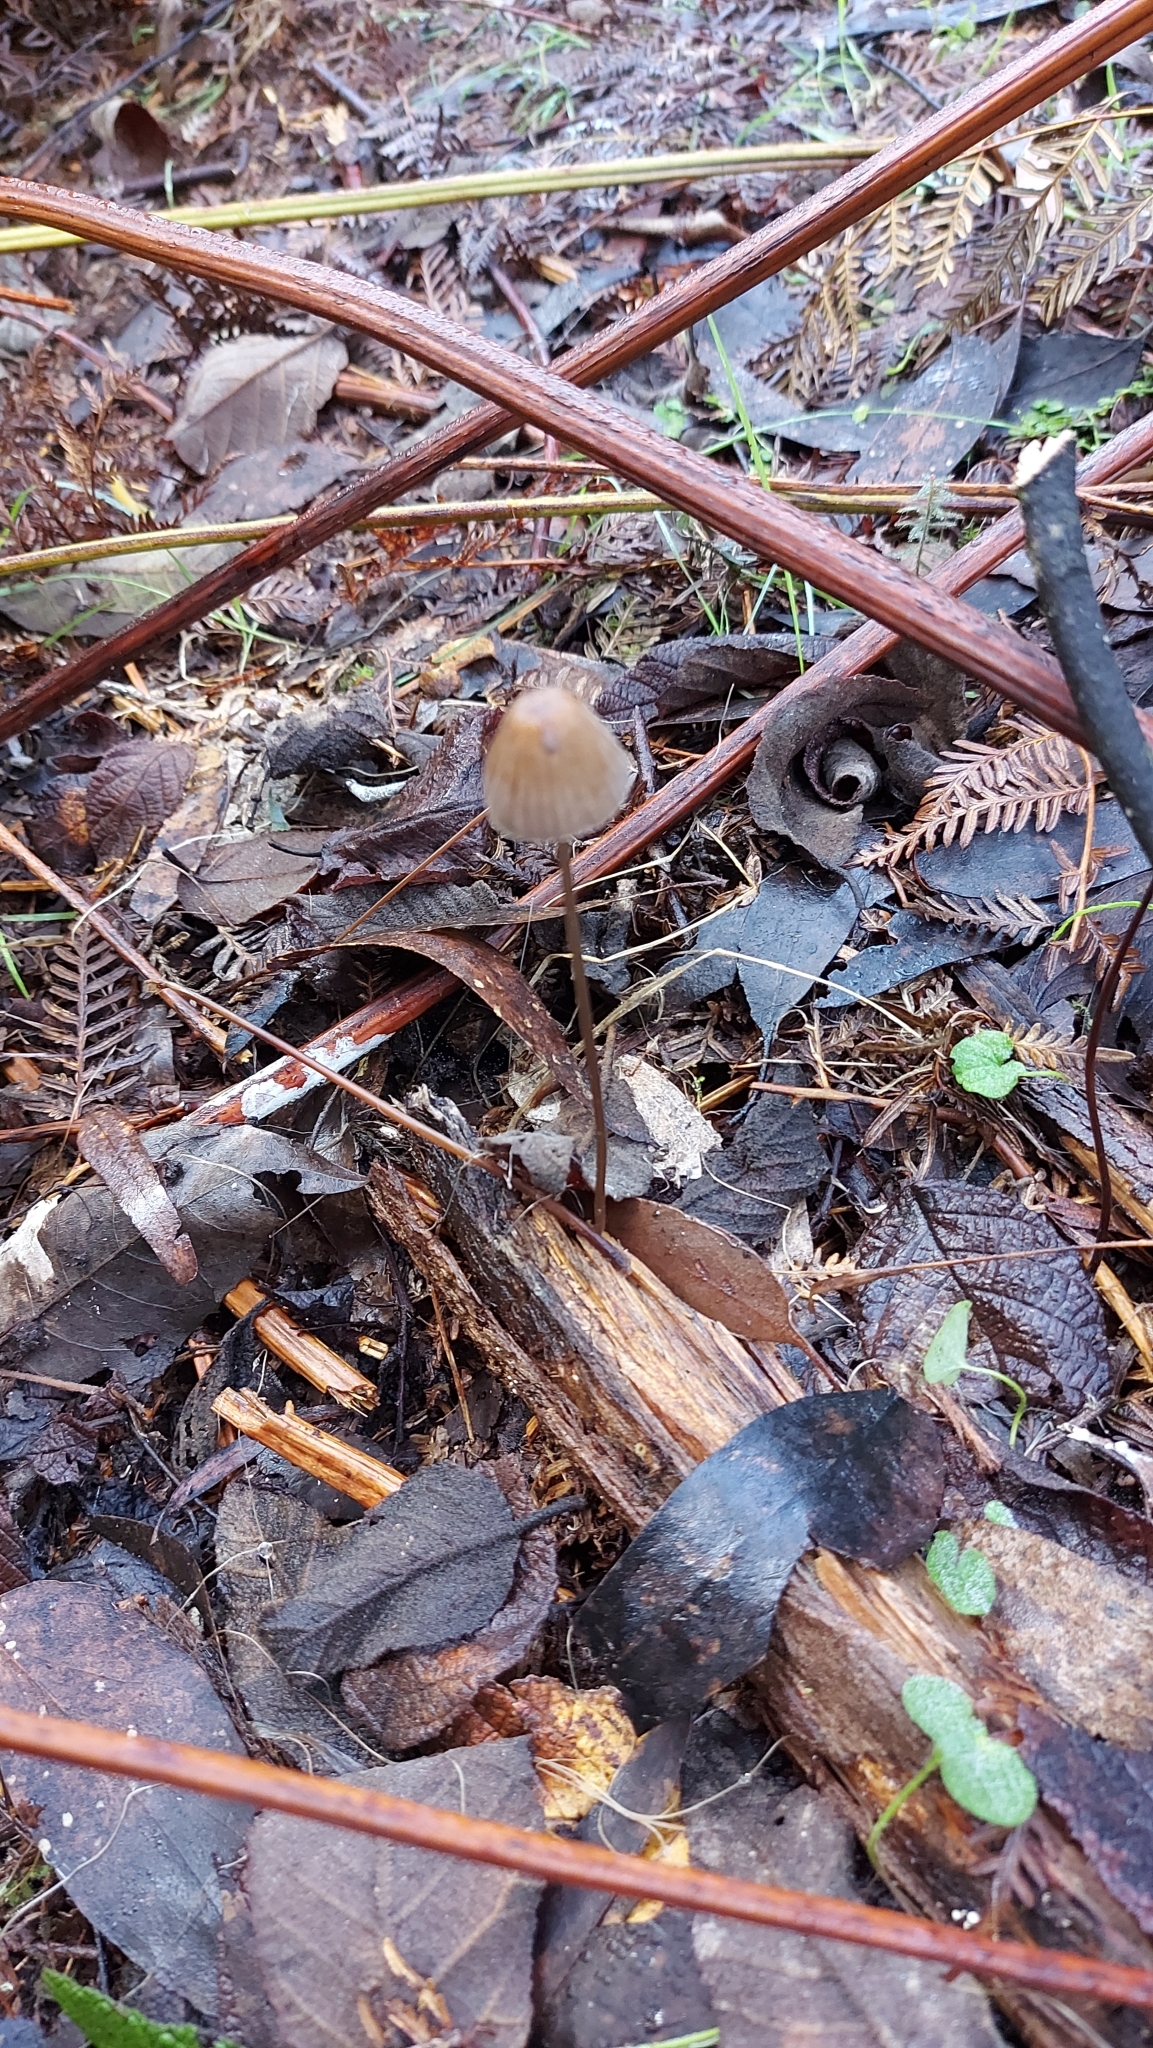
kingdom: Fungi
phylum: Basidiomycota
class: Agaricomycetes
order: Agaricales
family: Mycenaceae
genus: Mycena
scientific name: Mycena cystidiosa
